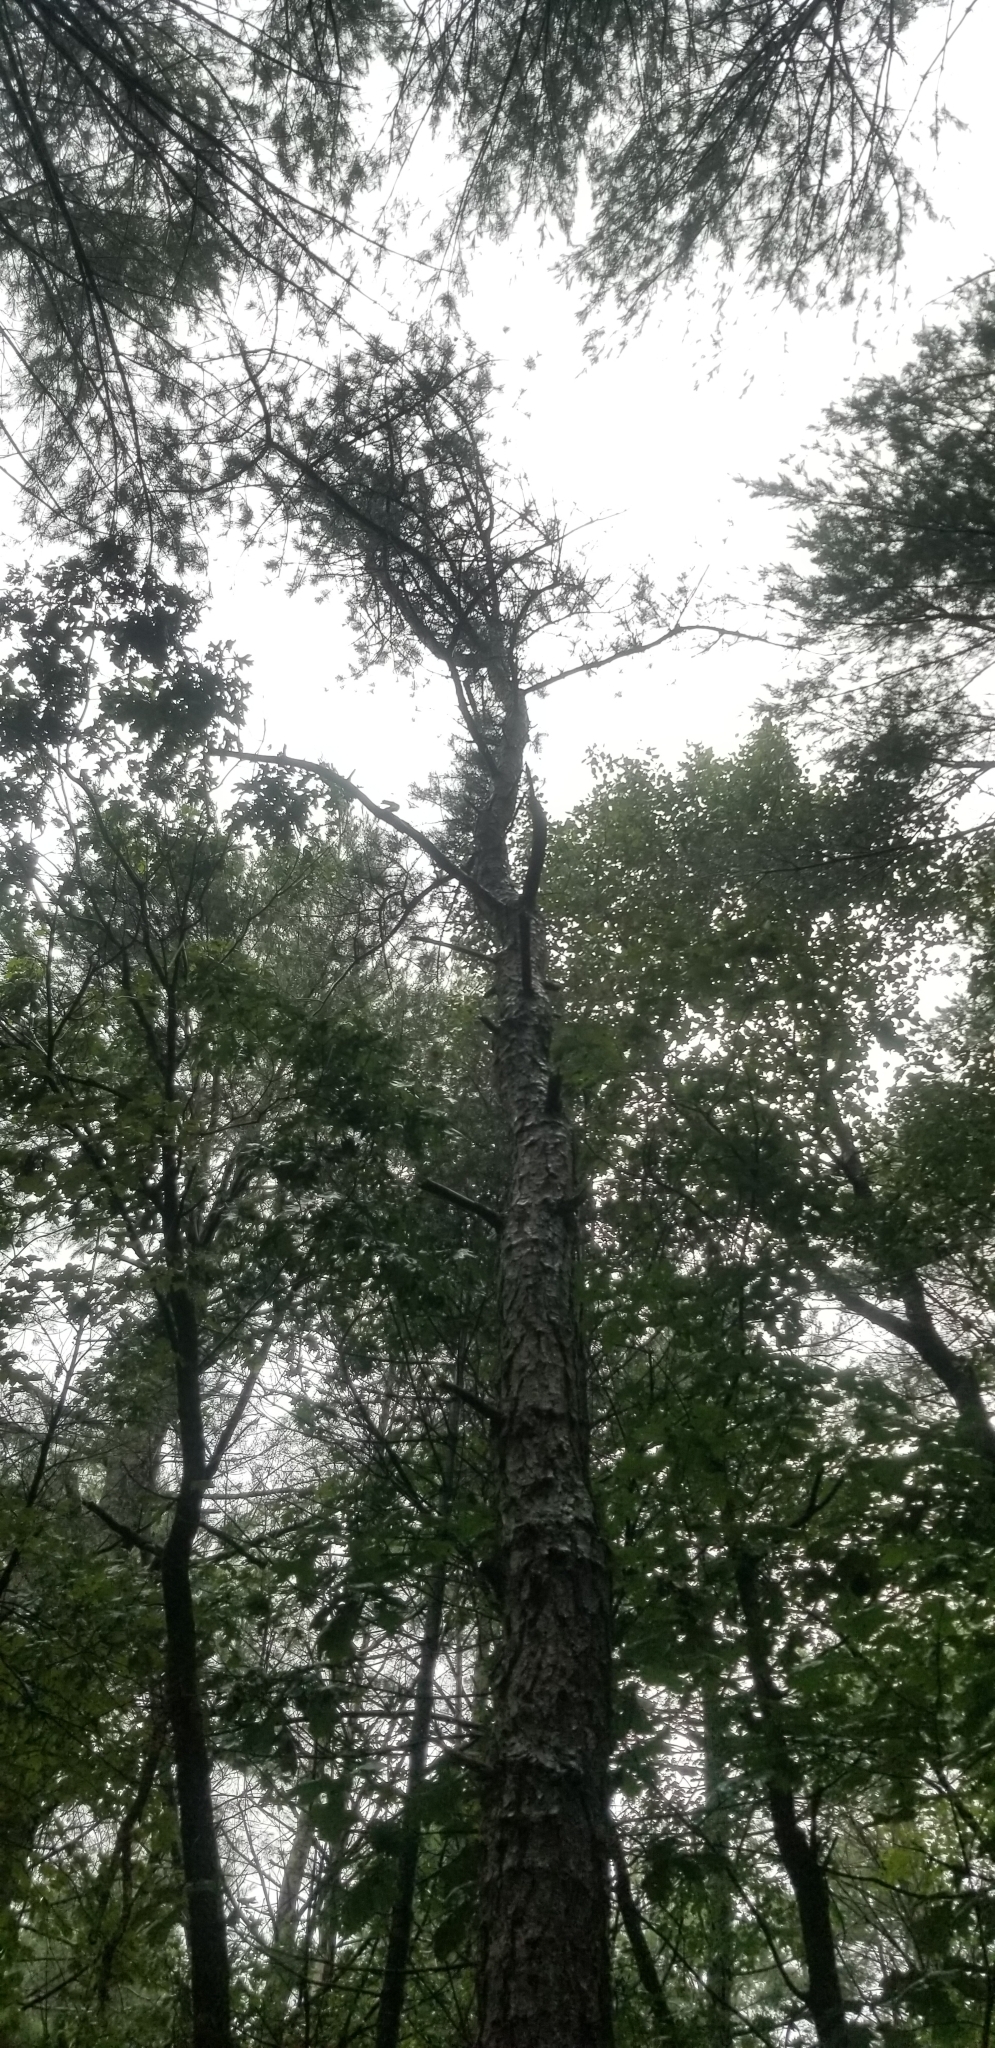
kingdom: Plantae
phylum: Tracheophyta
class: Pinopsida
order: Pinales
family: Pinaceae
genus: Pinus
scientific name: Pinus rigida
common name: Pitch pine
